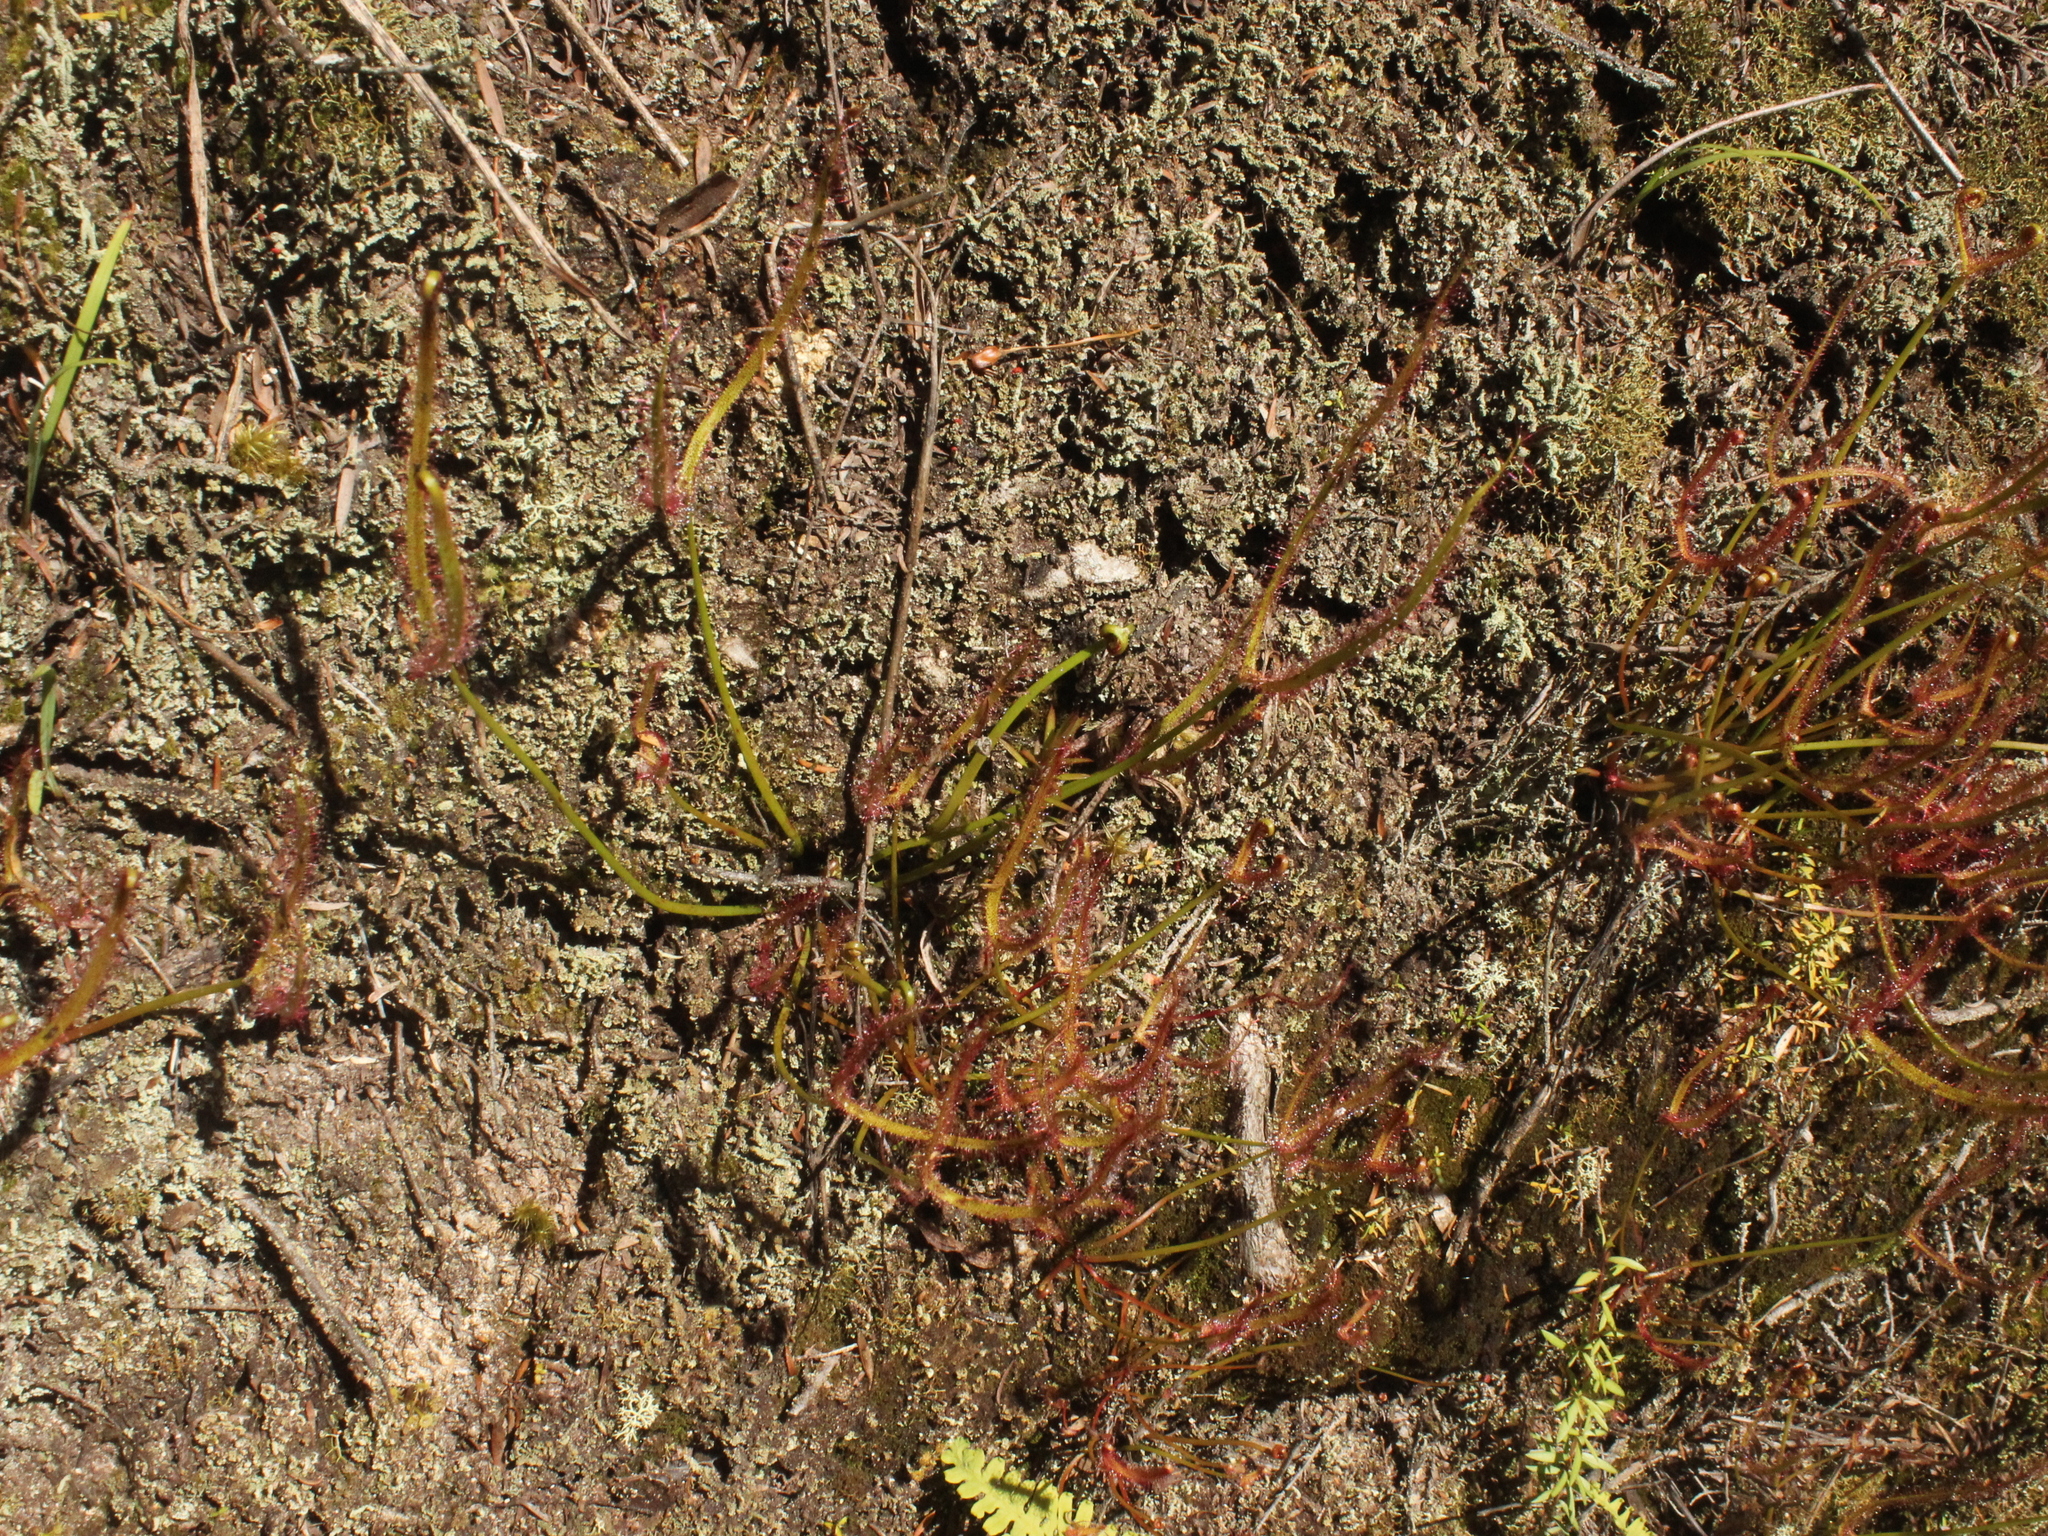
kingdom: Plantae
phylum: Tracheophyta
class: Magnoliopsida
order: Caryophyllales
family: Droseraceae
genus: Drosera
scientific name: Drosera binata
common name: Forked sundew
